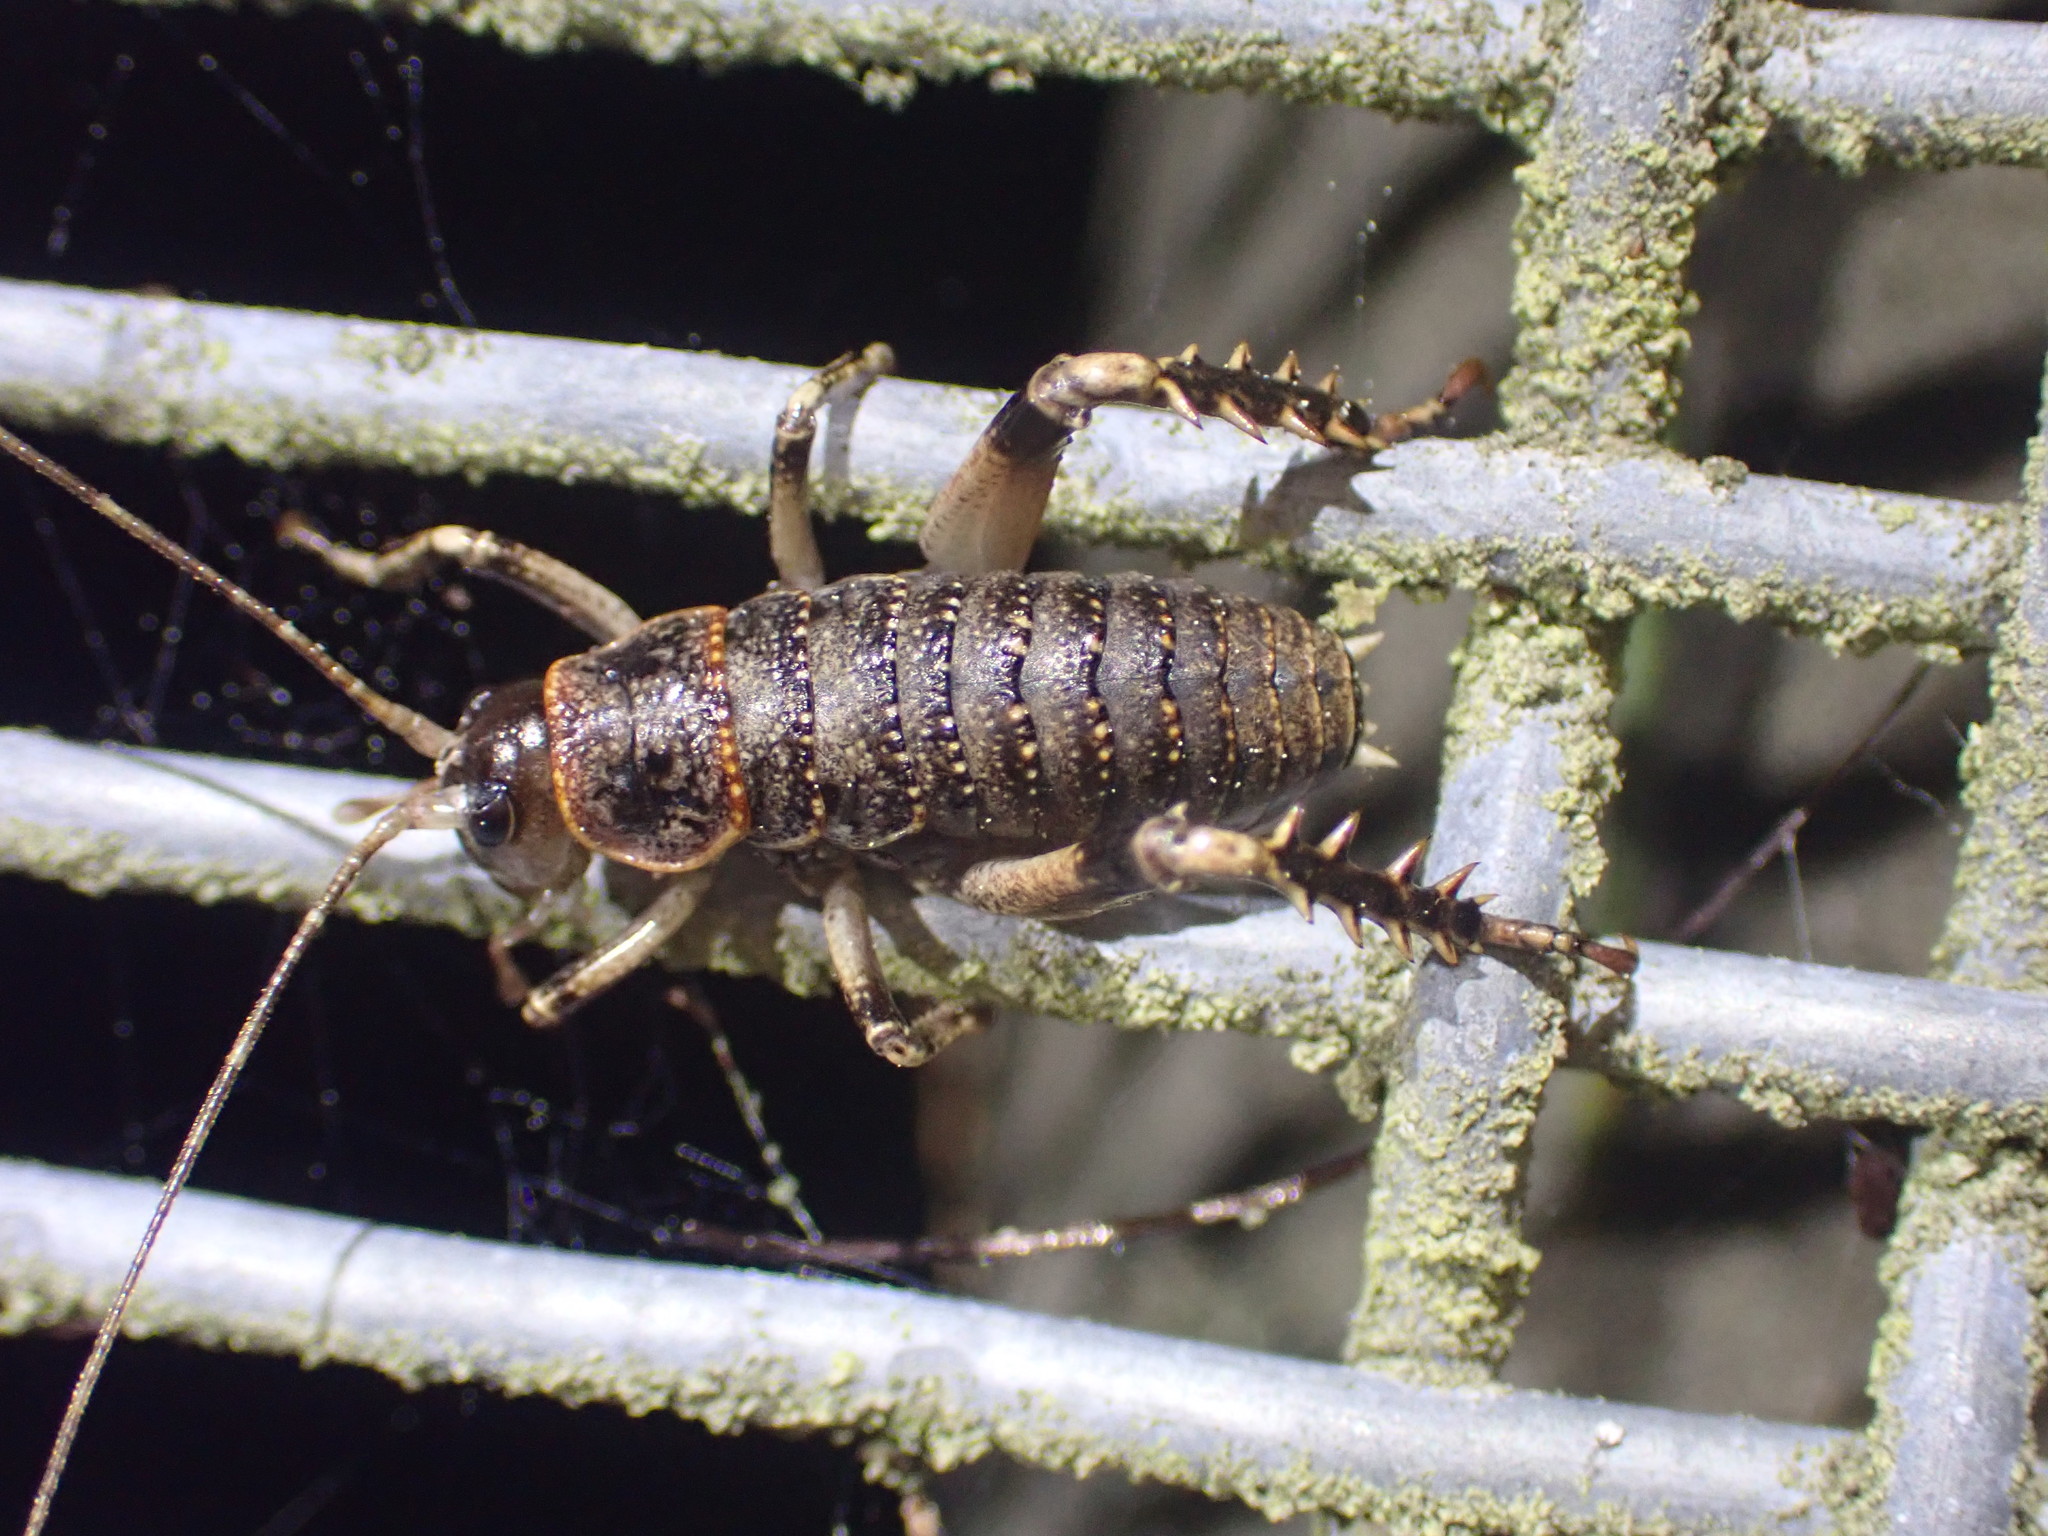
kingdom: Animalia
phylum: Arthropoda
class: Insecta
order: Orthoptera
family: Anostostomatidae
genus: Deinacrida
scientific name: Deinacrida rugosa
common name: Stephens island weta
